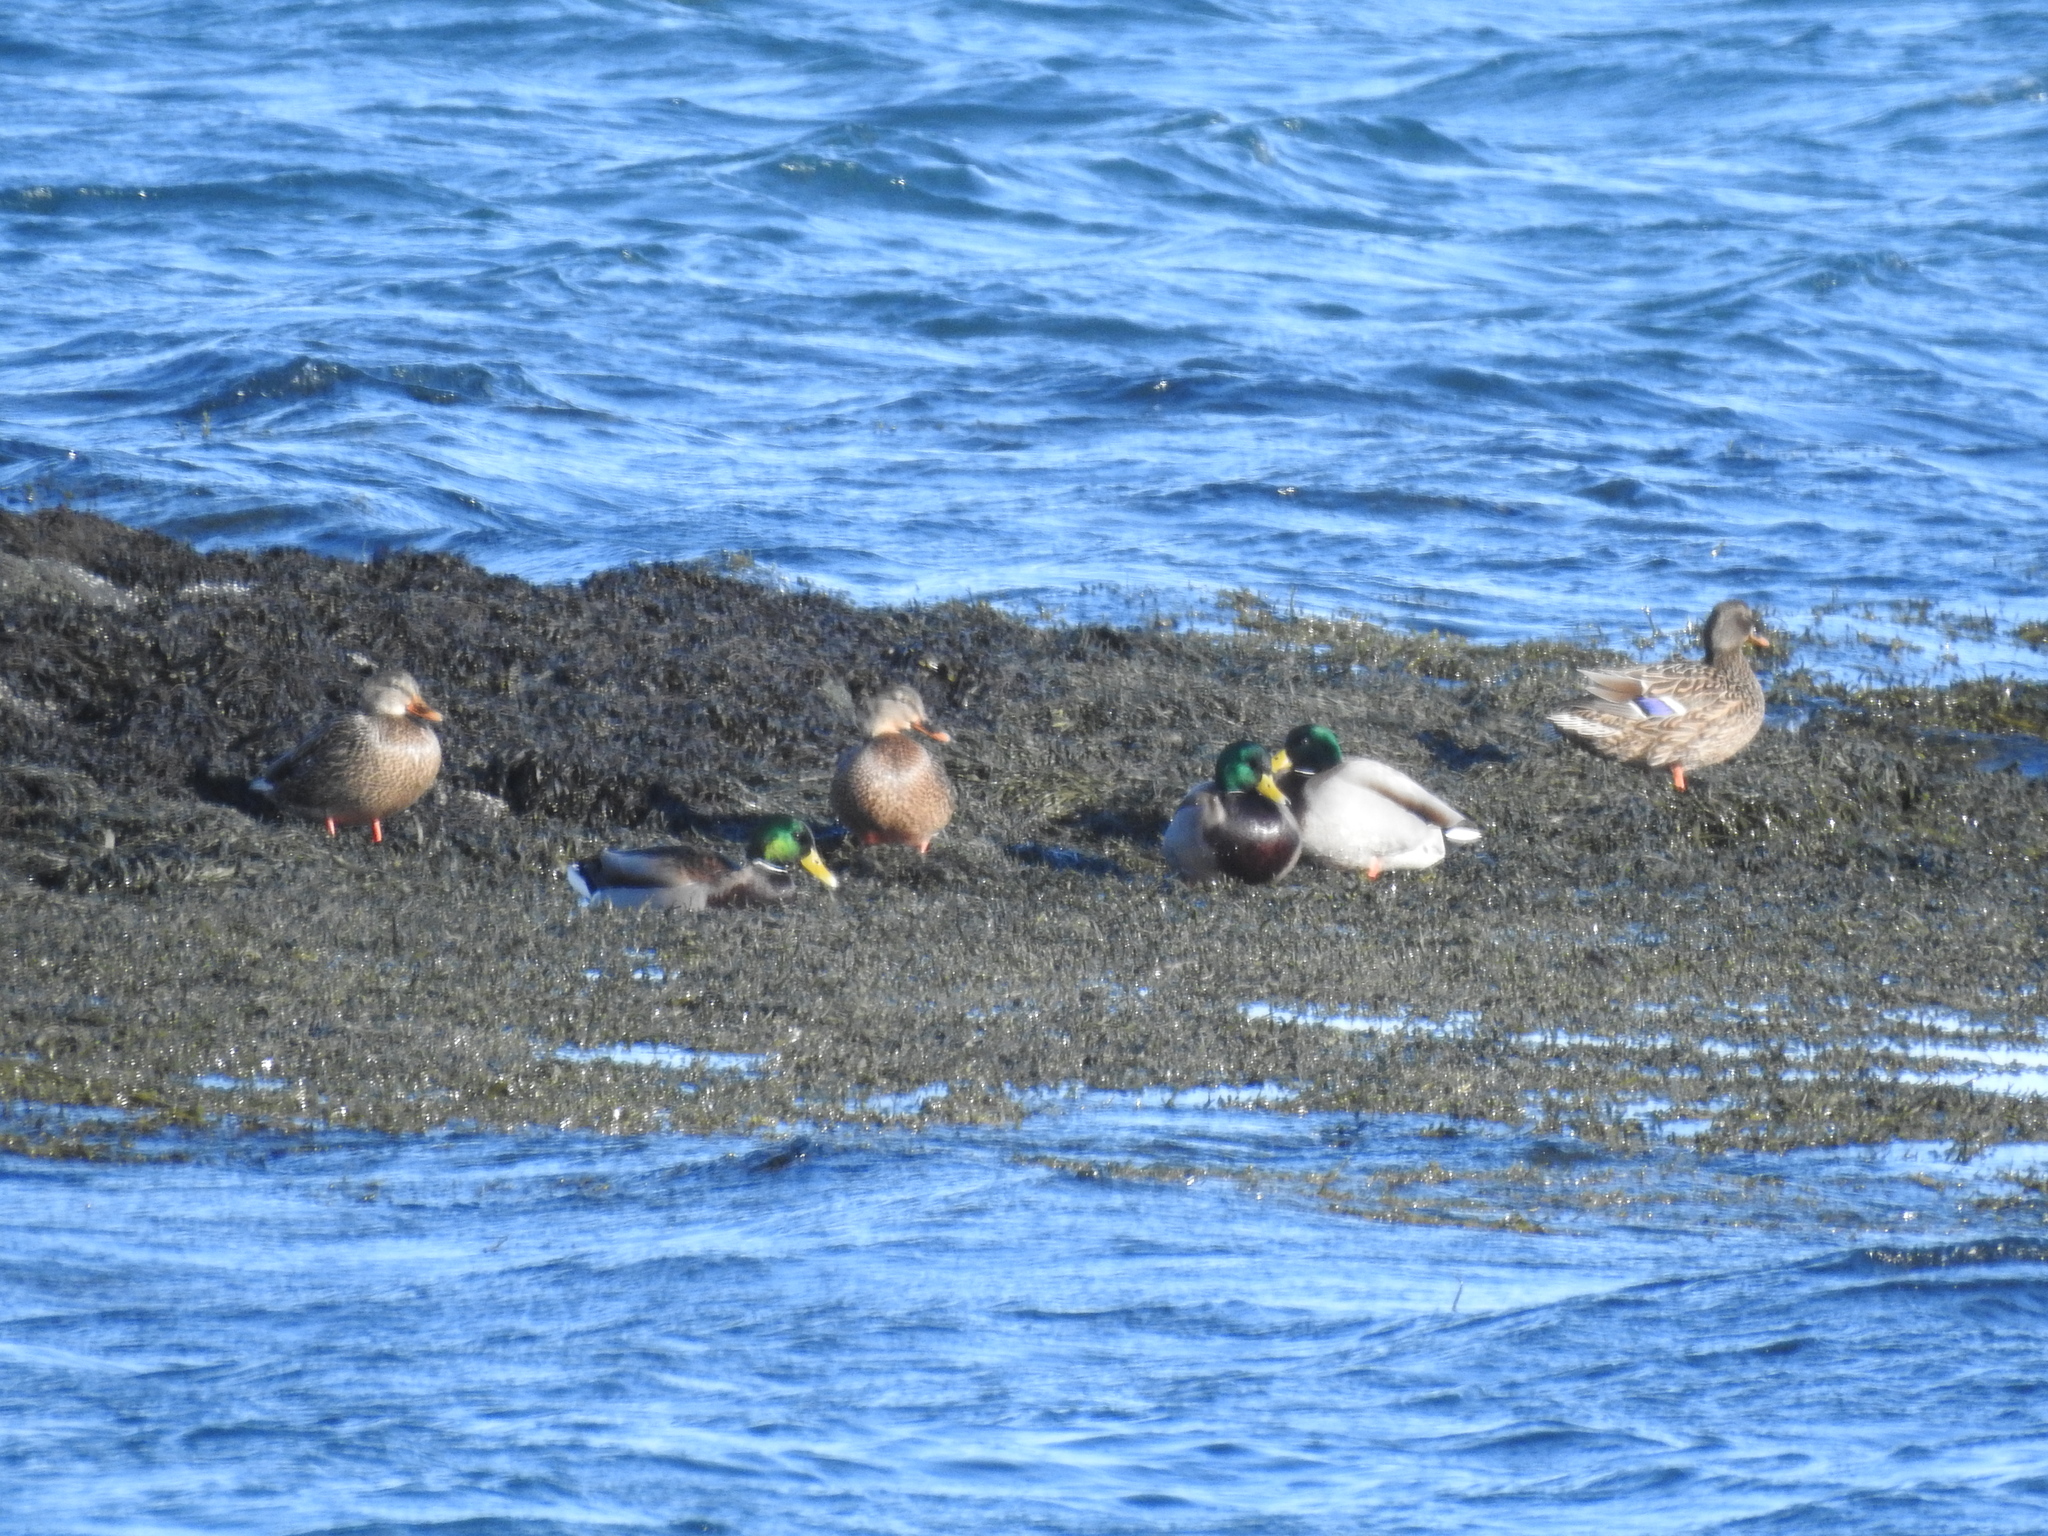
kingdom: Animalia
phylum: Chordata
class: Aves
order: Anseriformes
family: Anatidae
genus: Anas
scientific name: Anas platyrhynchos
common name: Mallard
